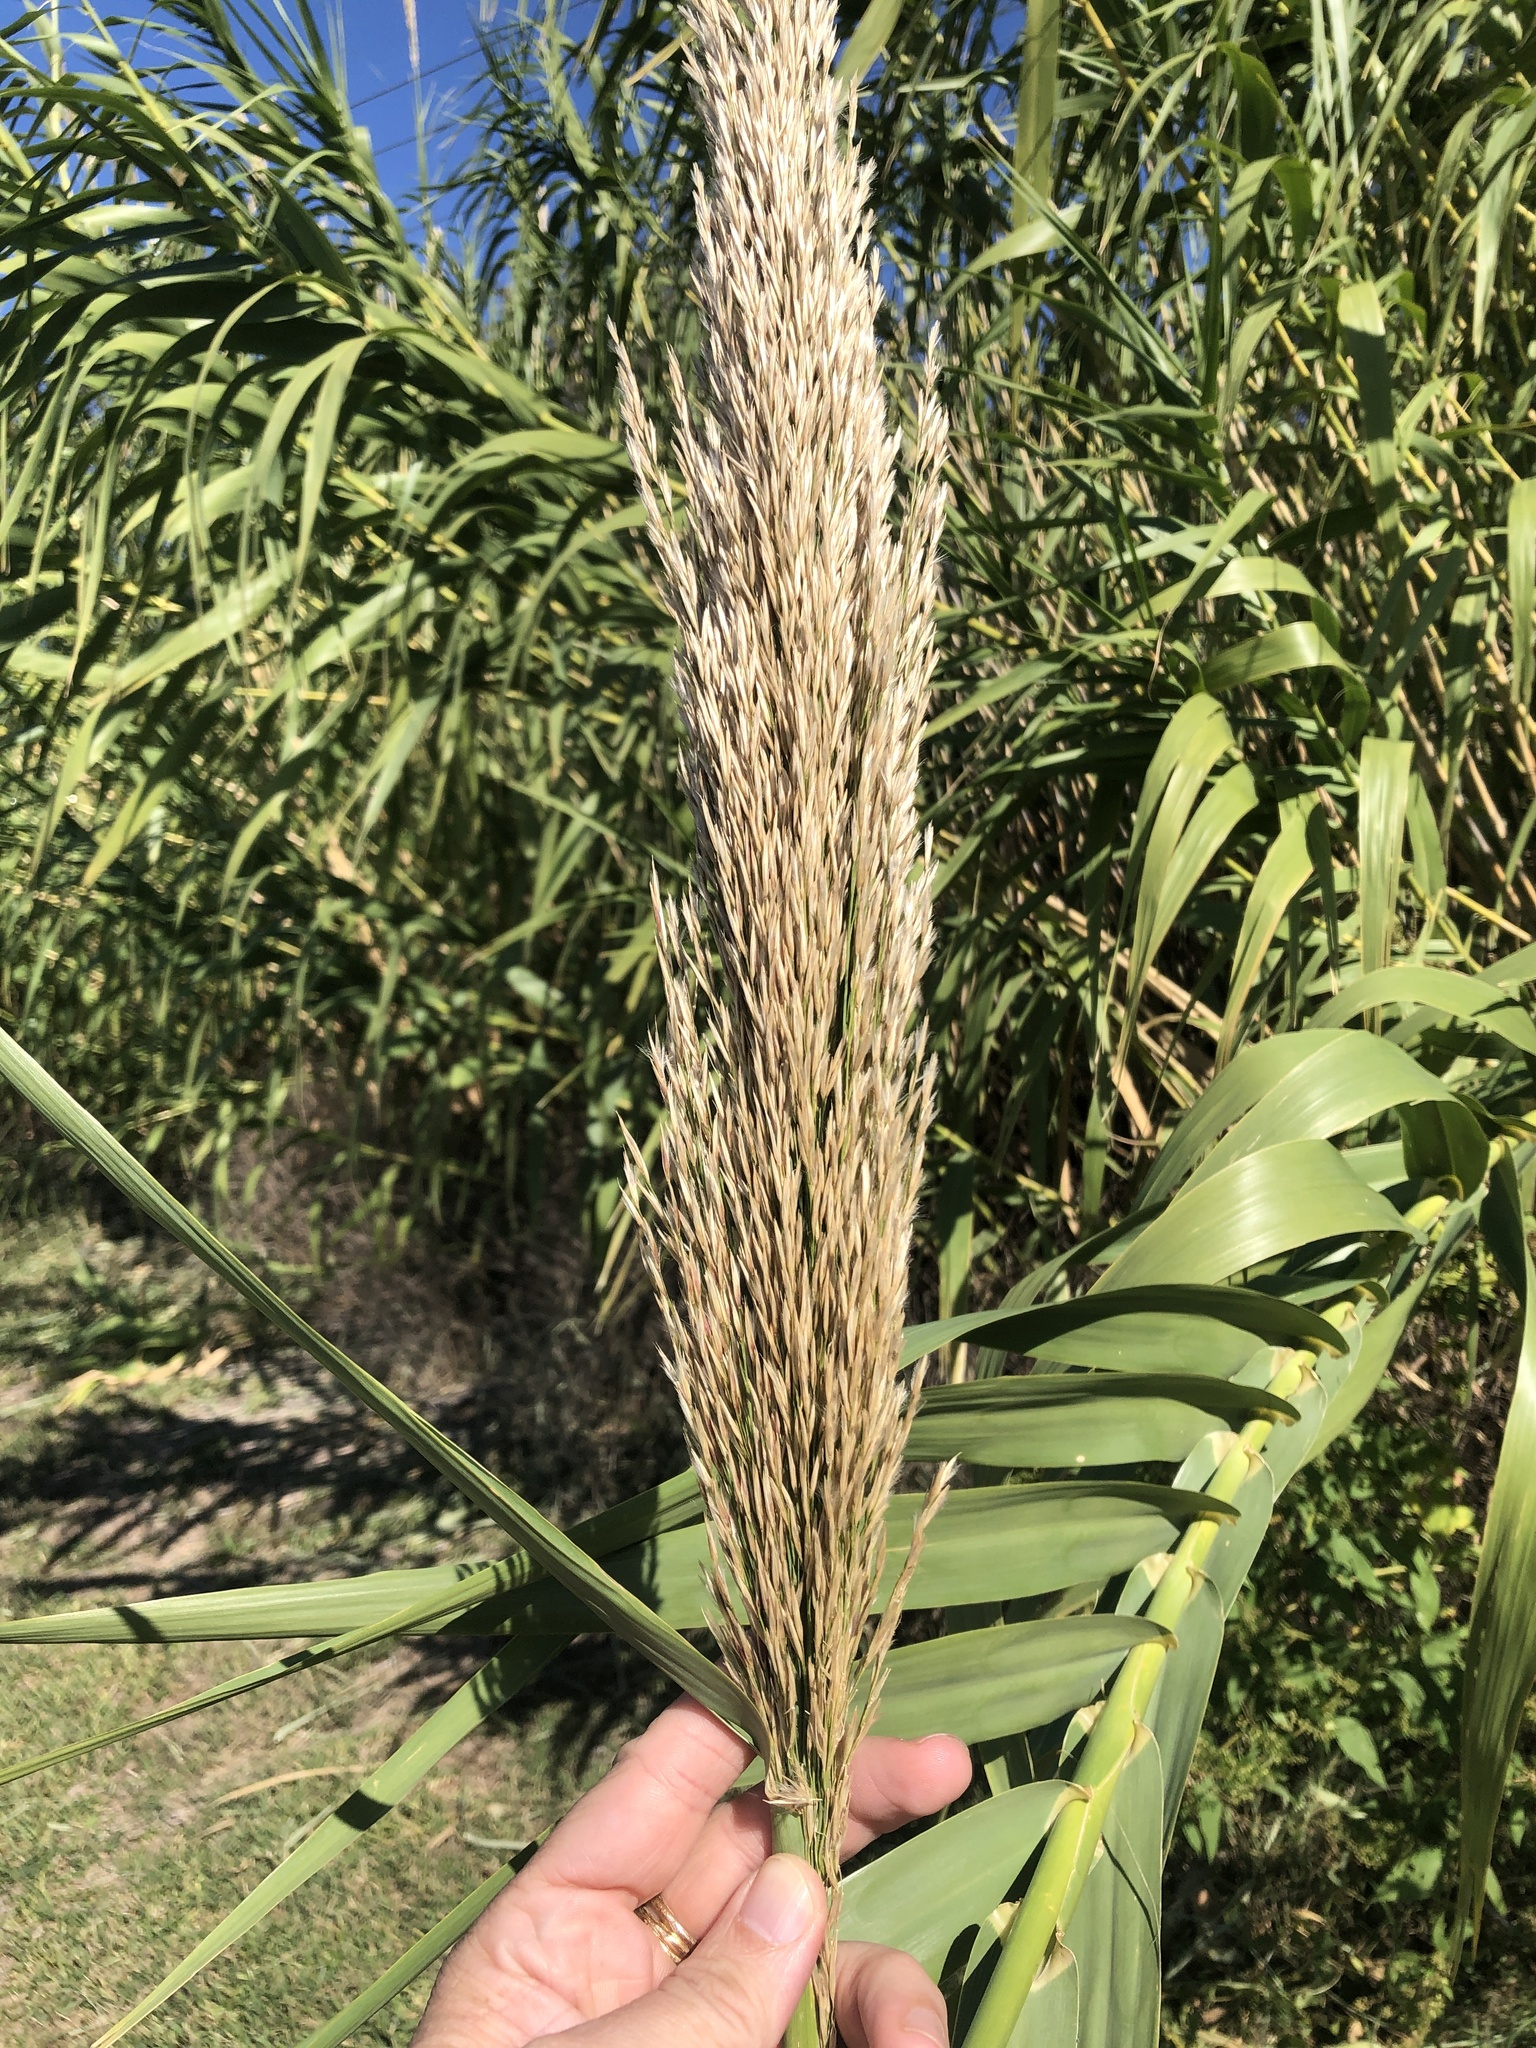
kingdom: Plantae
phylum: Tracheophyta
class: Liliopsida
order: Poales
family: Poaceae
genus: Arundo
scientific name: Arundo donax
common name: Giant reed
